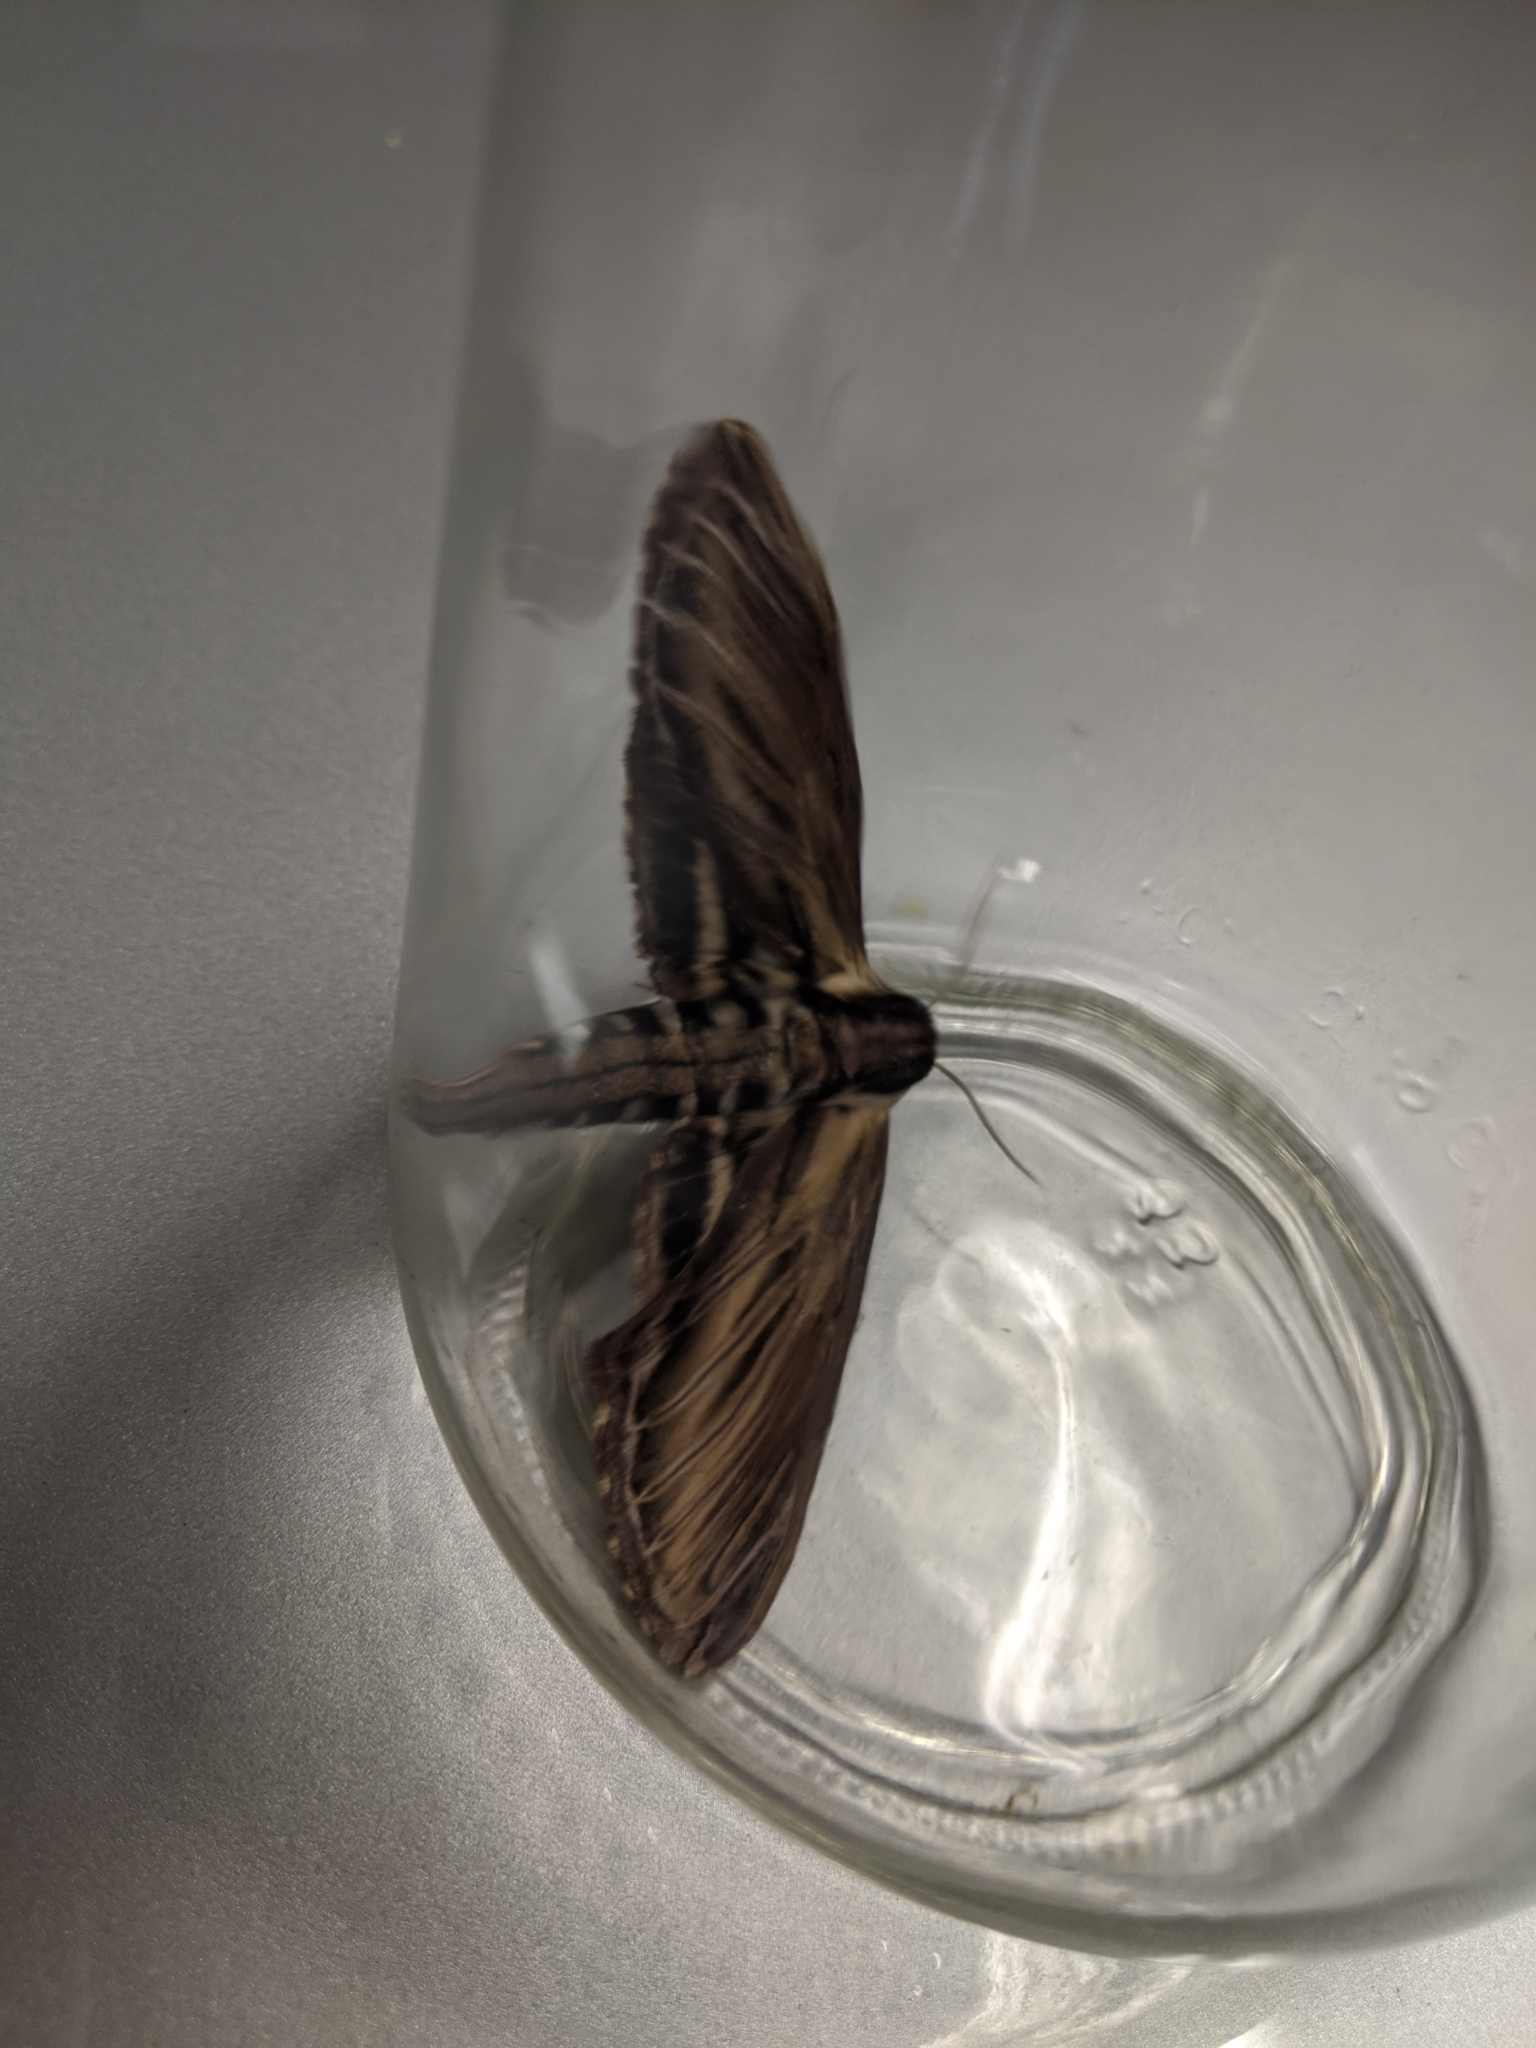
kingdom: Animalia
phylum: Arthropoda
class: Insecta
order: Lepidoptera
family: Sphingidae
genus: Sphinx
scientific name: Sphinx kalmiae
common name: Laurel sphinx
